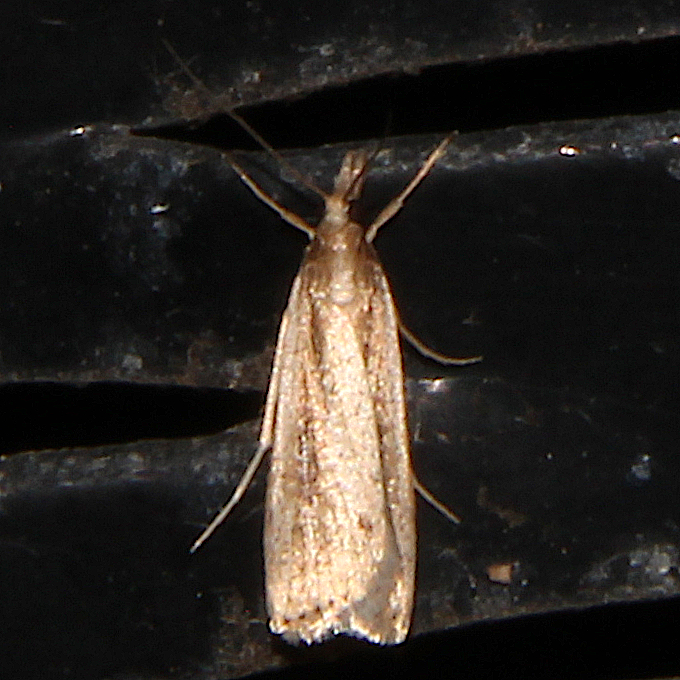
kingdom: Animalia
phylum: Arthropoda
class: Insecta
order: Lepidoptera
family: Crambidae
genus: Eudonia
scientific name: Eudonia sabulosella
